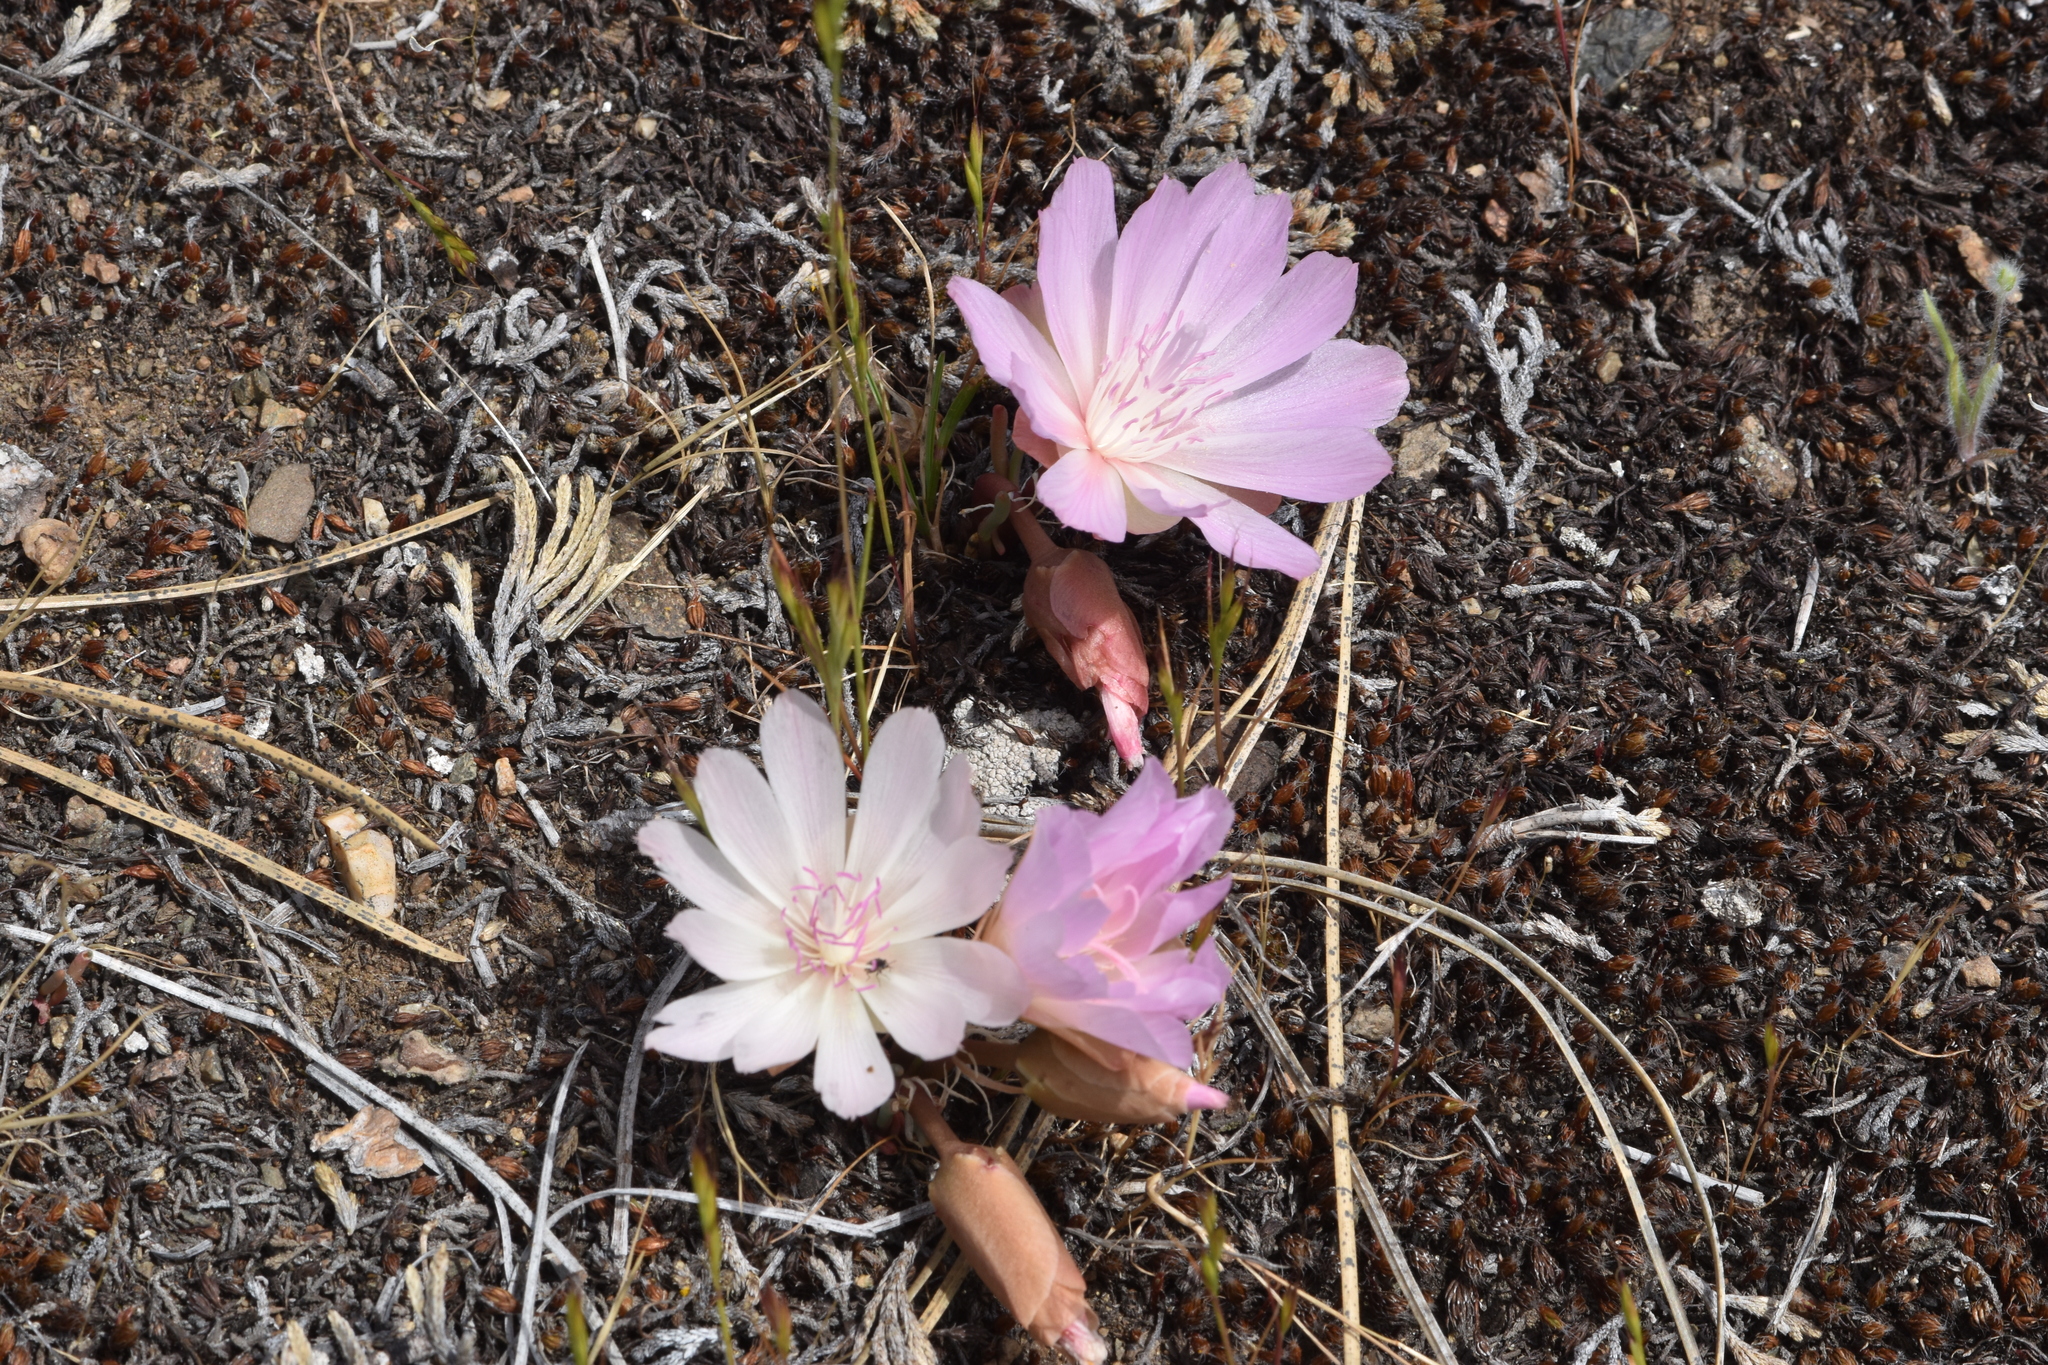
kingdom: Plantae
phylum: Tracheophyta
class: Magnoliopsida
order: Caryophyllales
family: Montiaceae
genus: Lewisia
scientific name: Lewisia rediviva
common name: Bitter-root
